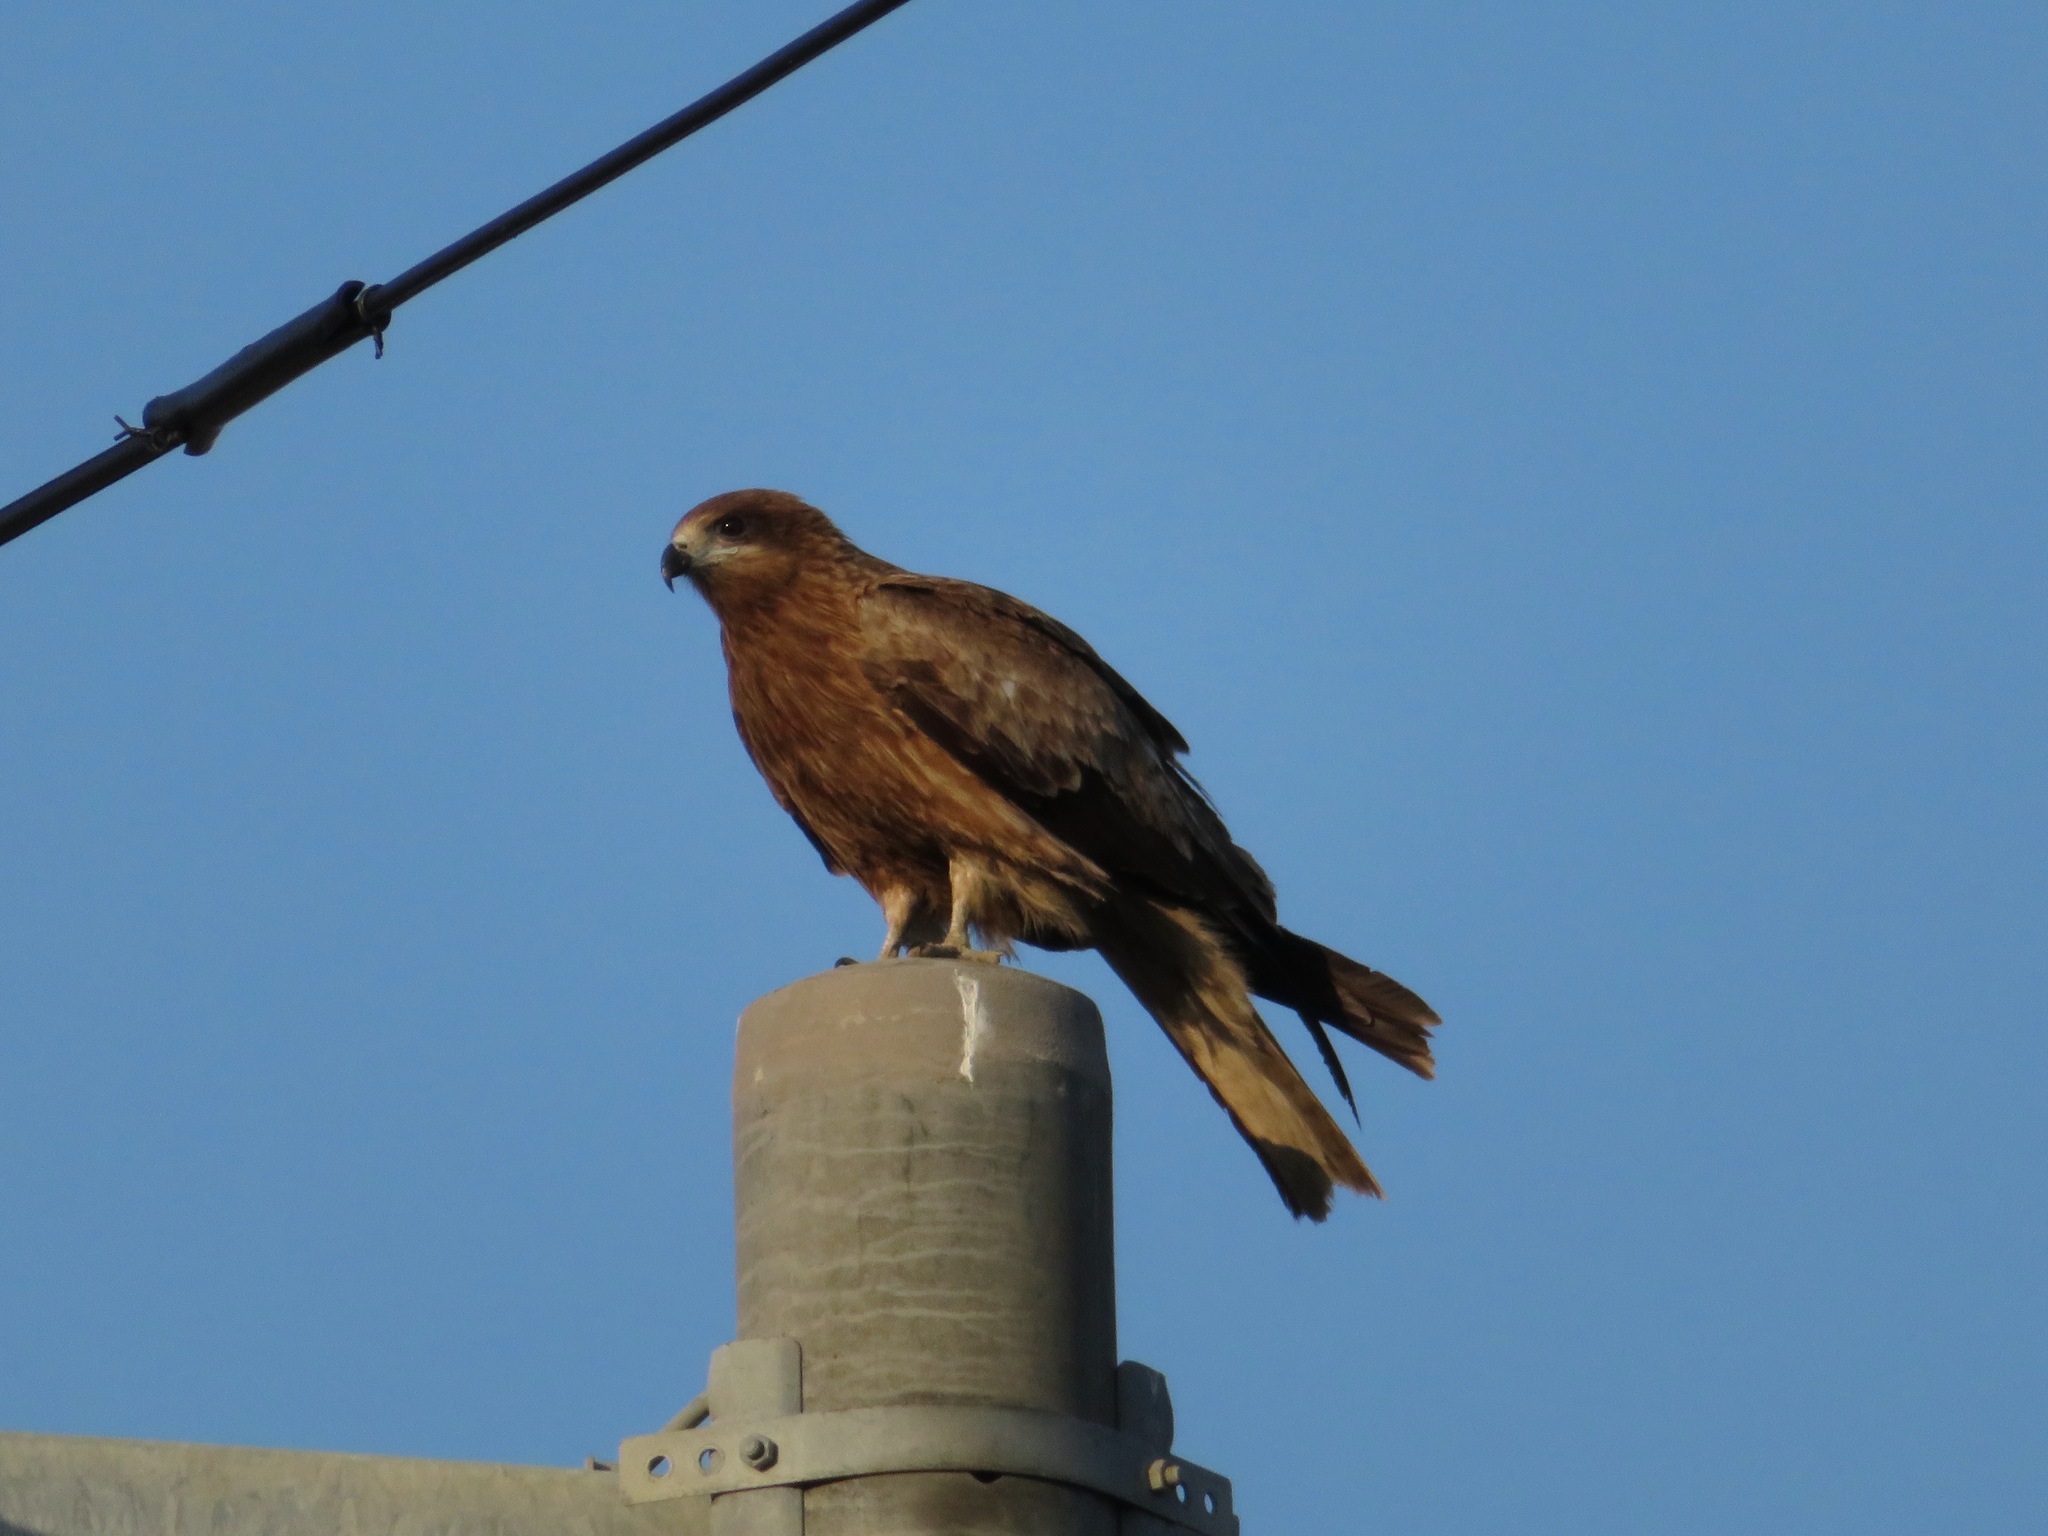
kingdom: Animalia
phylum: Chordata
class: Aves
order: Accipitriformes
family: Accipitridae
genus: Milvus
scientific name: Milvus migrans
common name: Black kite
